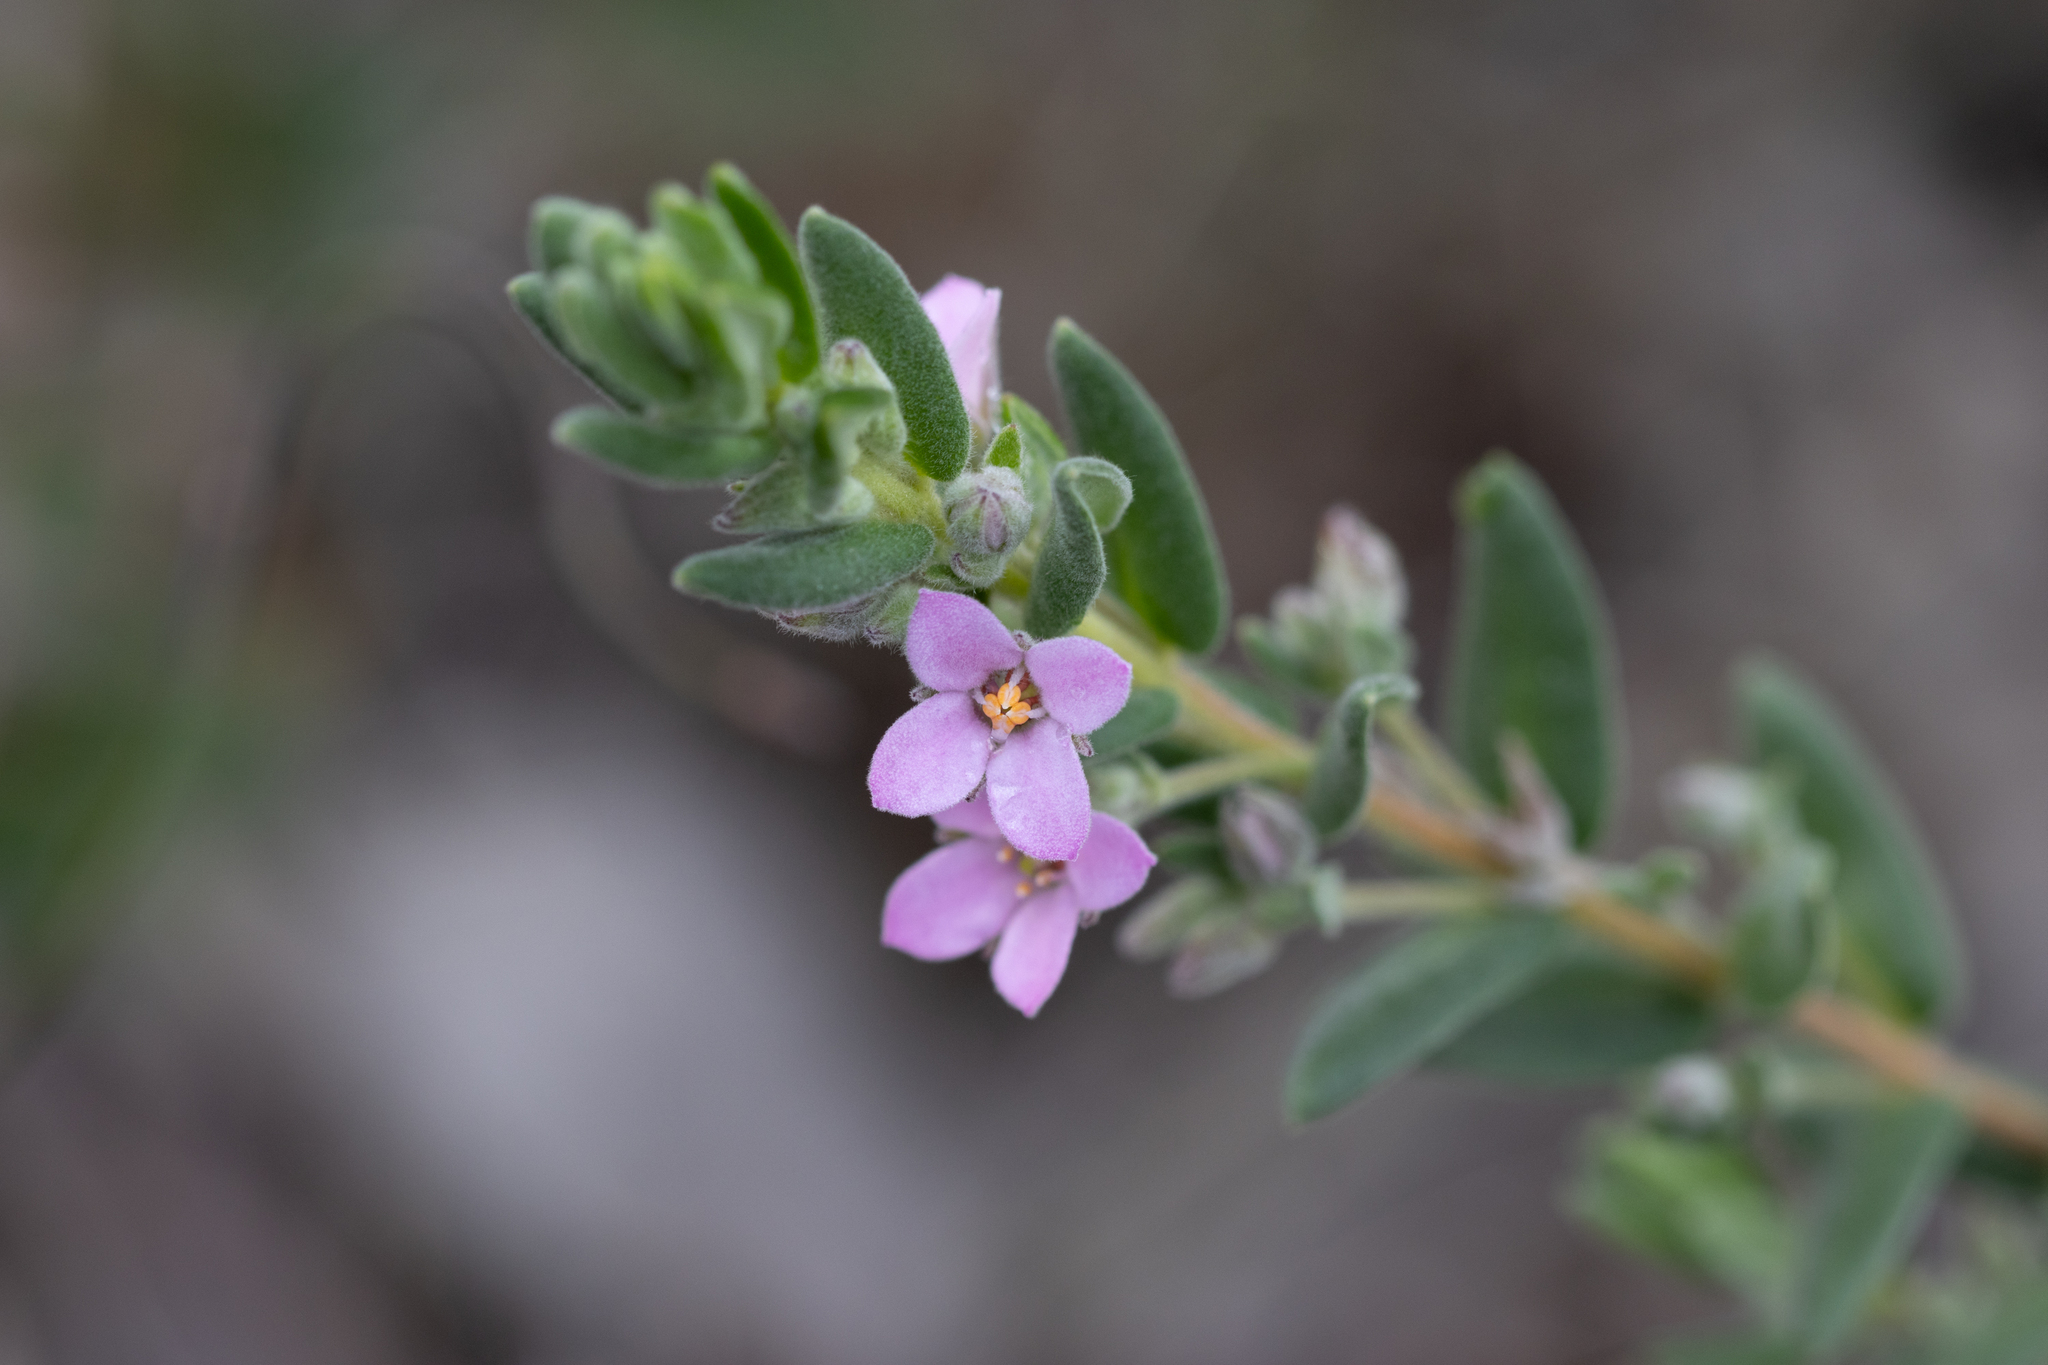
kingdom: Plantae
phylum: Tracheophyta
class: Magnoliopsida
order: Sapindales
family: Rutaceae
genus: Zieria
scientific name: Zieria veronicea
